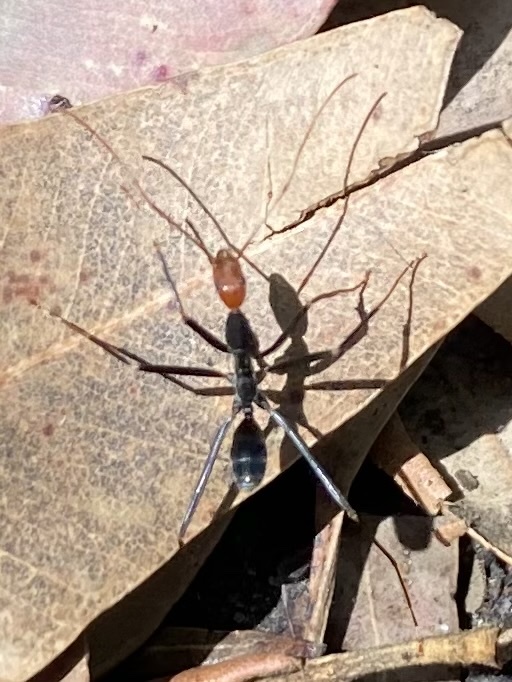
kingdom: Animalia
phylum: Arthropoda
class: Insecta
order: Hymenoptera
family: Formicidae
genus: Leptomyrmex
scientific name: Leptomyrmex erythrocephalus
